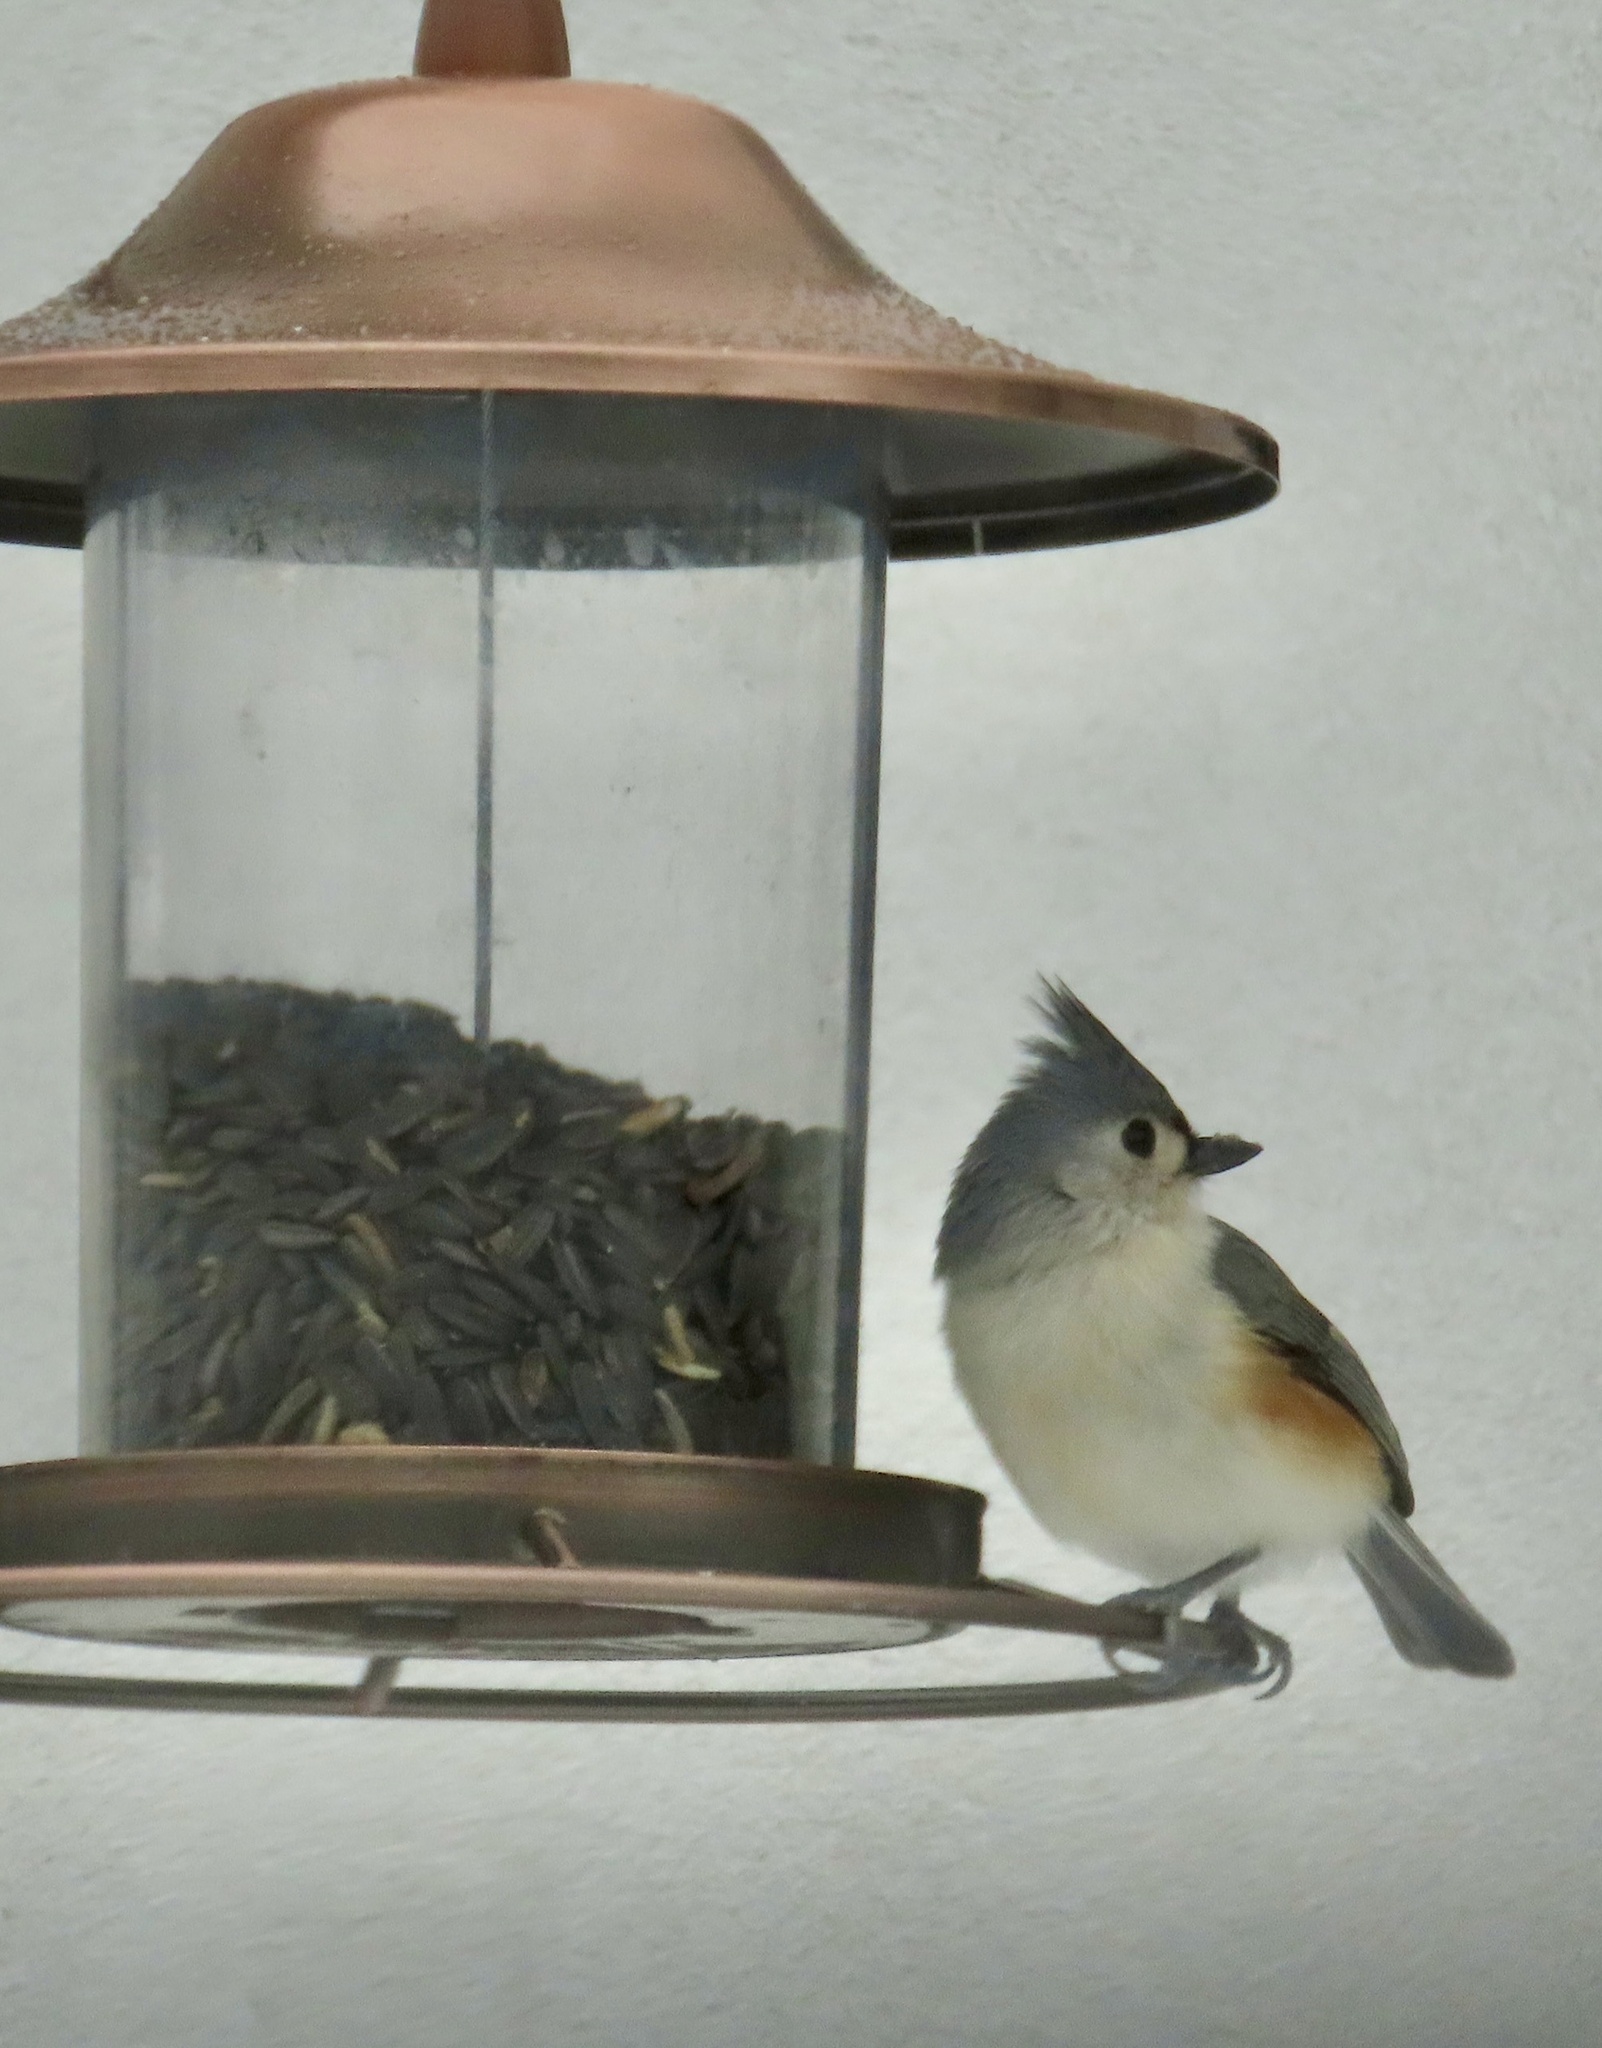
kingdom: Animalia
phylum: Chordata
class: Aves
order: Passeriformes
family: Paridae
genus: Baeolophus
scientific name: Baeolophus bicolor
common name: Tufted titmouse
